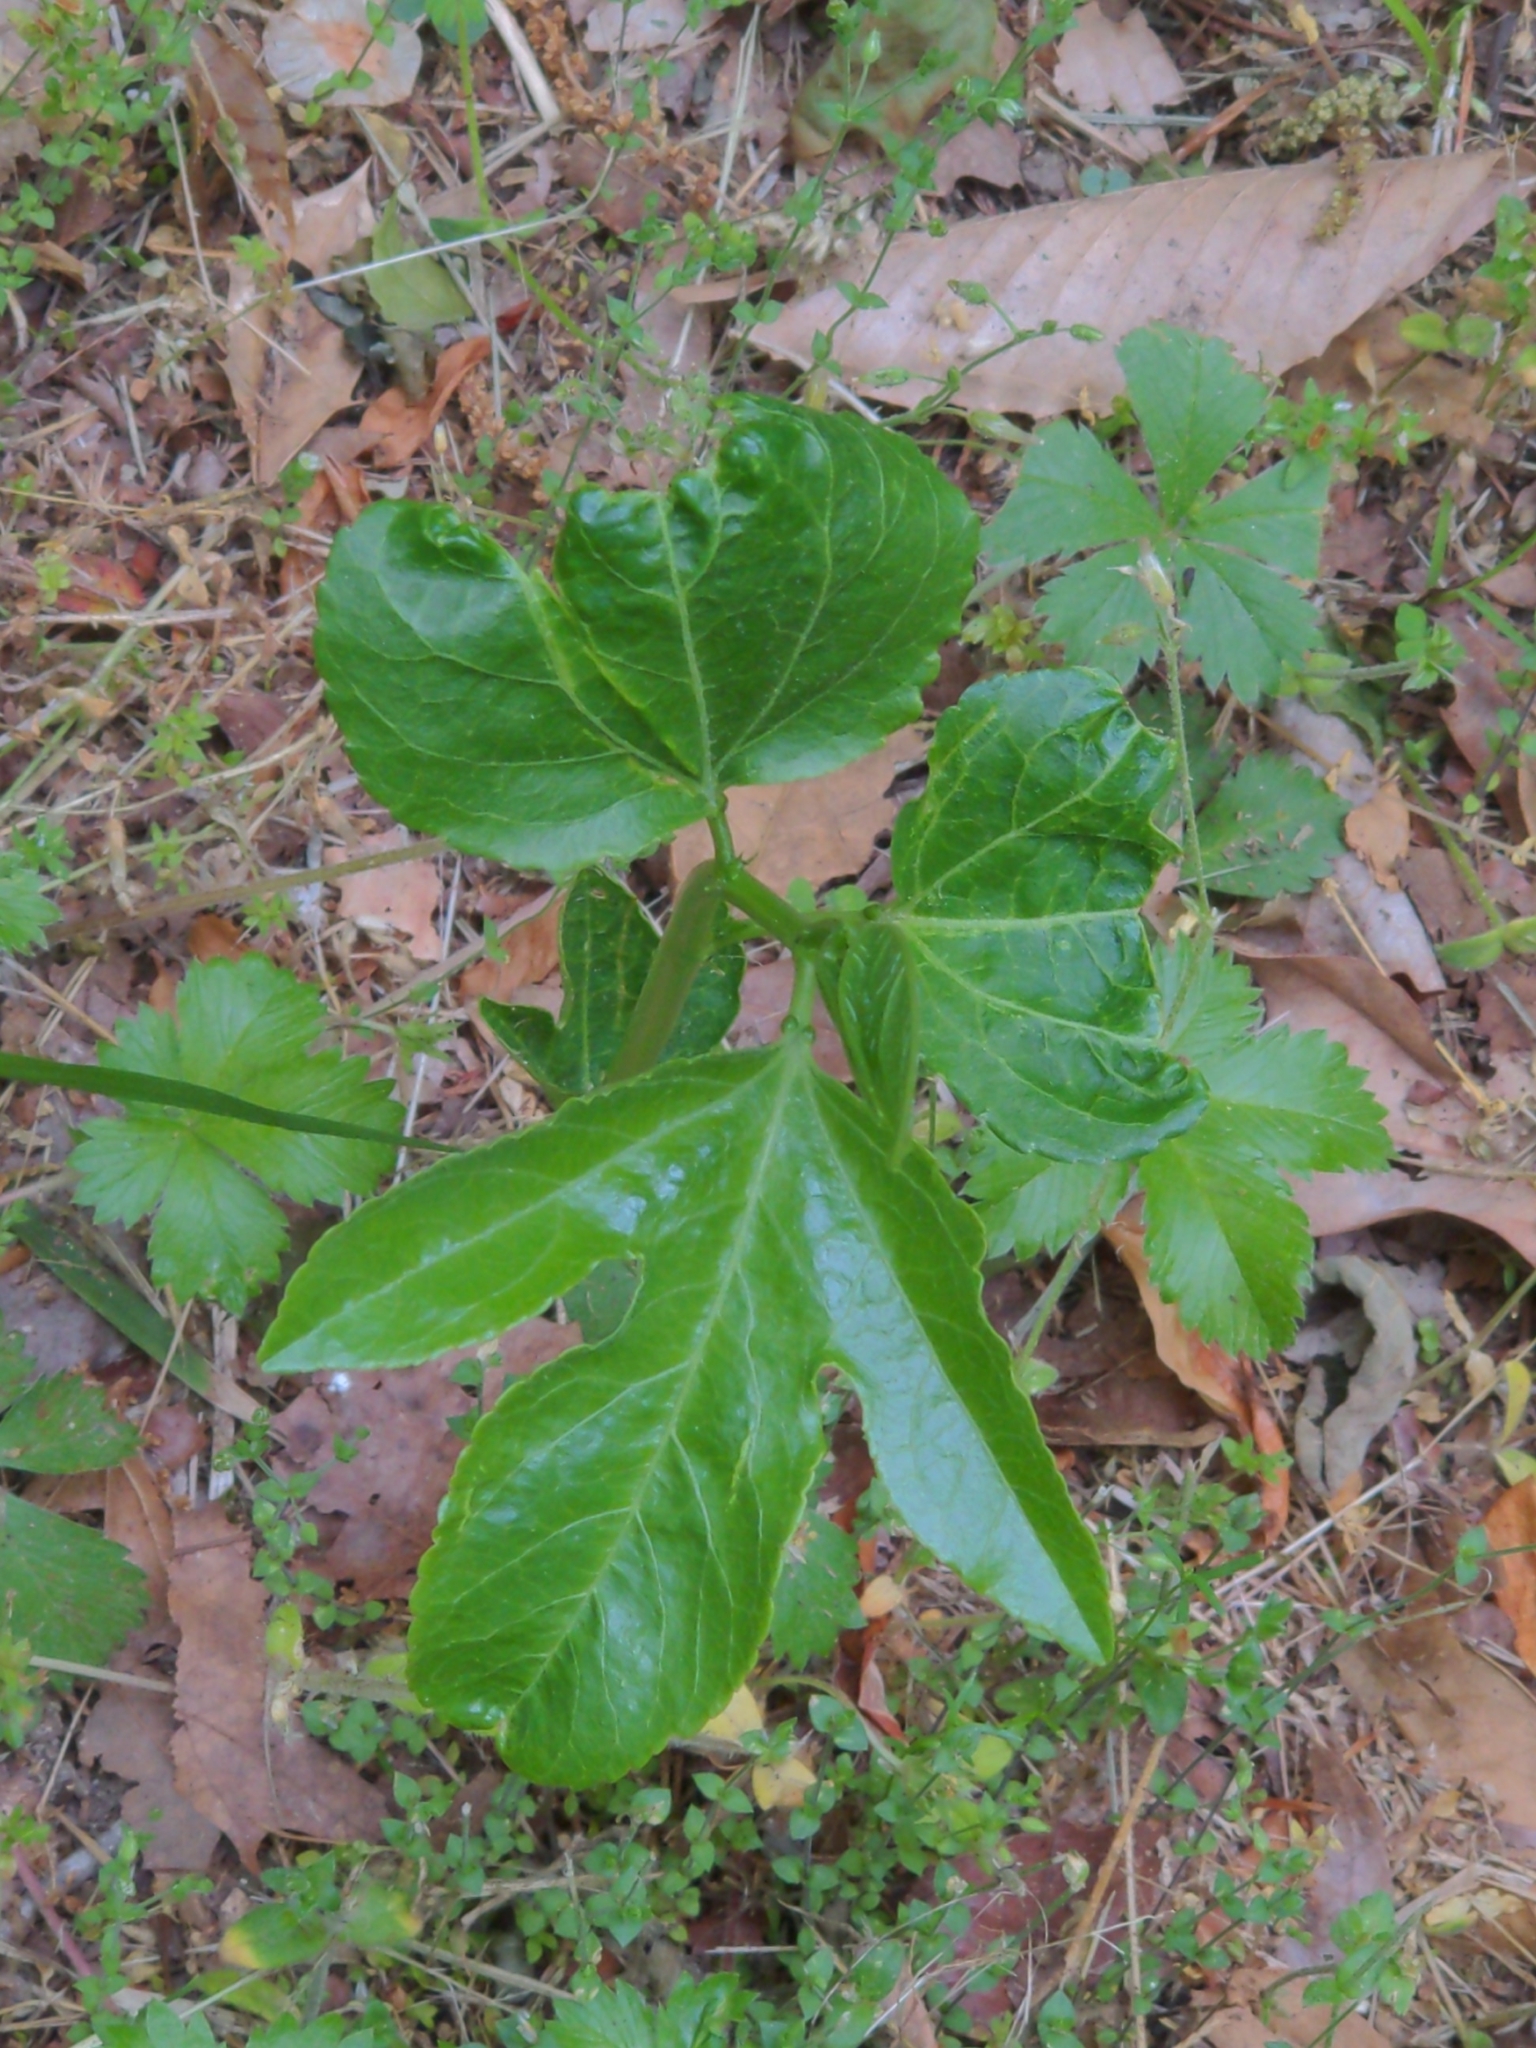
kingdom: Plantae
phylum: Tracheophyta
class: Magnoliopsida
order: Malpighiales
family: Passifloraceae
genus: Passiflora
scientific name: Passiflora incarnata
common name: Apricot-vine
